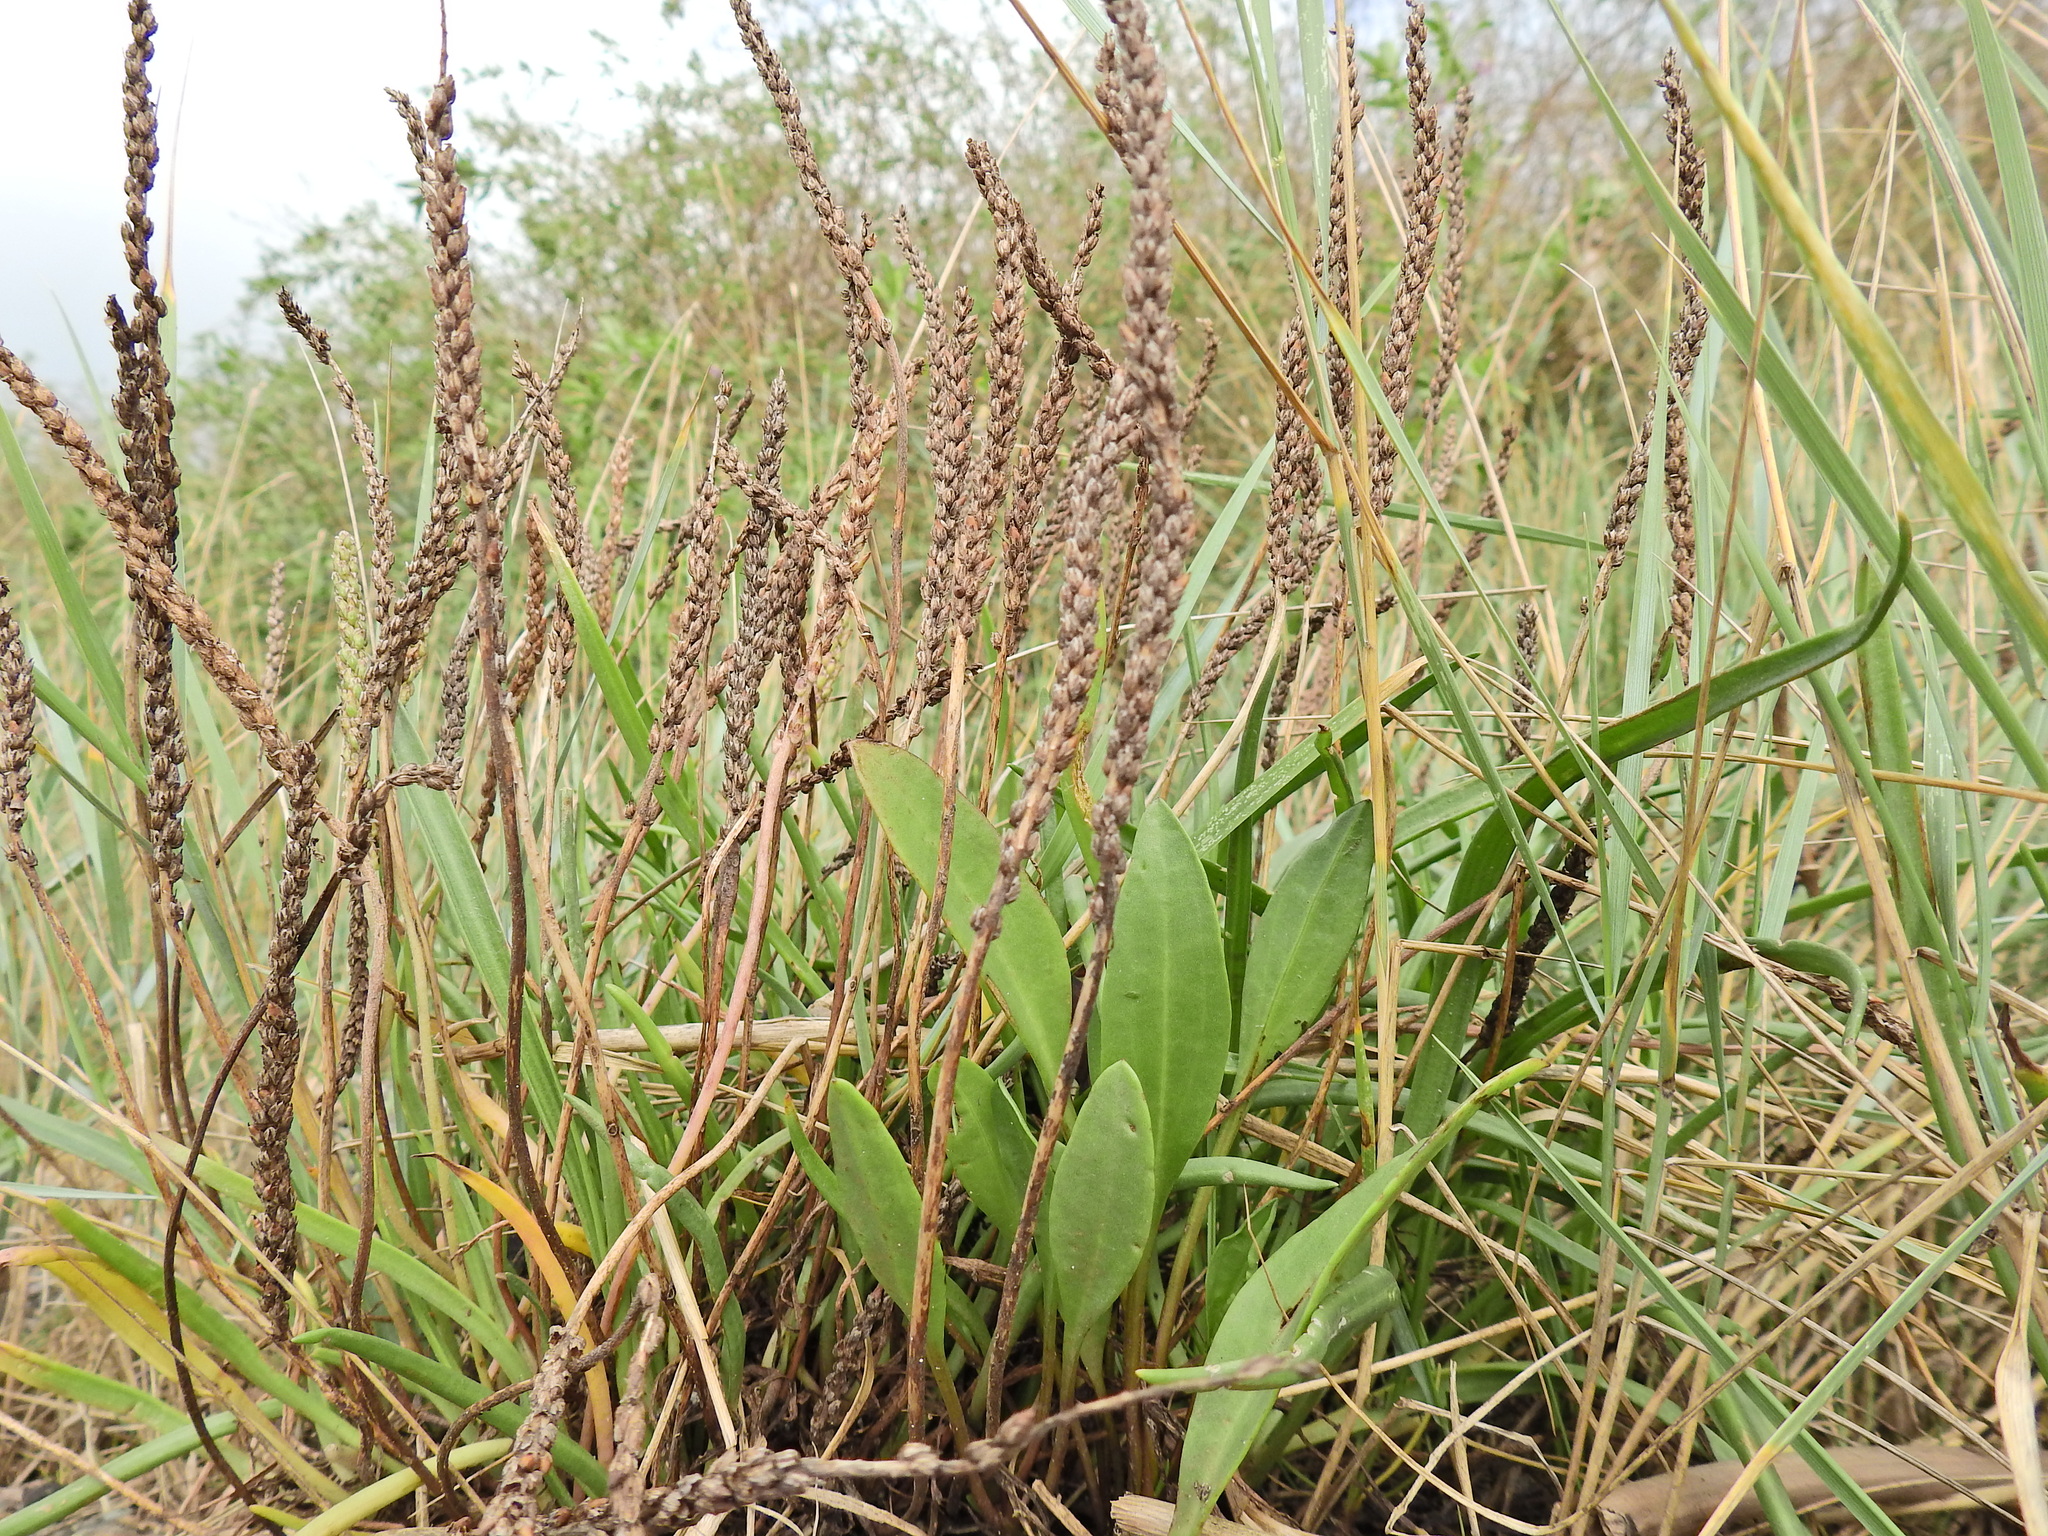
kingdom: Plantae
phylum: Tracheophyta
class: Magnoliopsida
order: Lamiales
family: Plantaginaceae
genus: Plantago
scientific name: Plantago maritima
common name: Sea plantain
